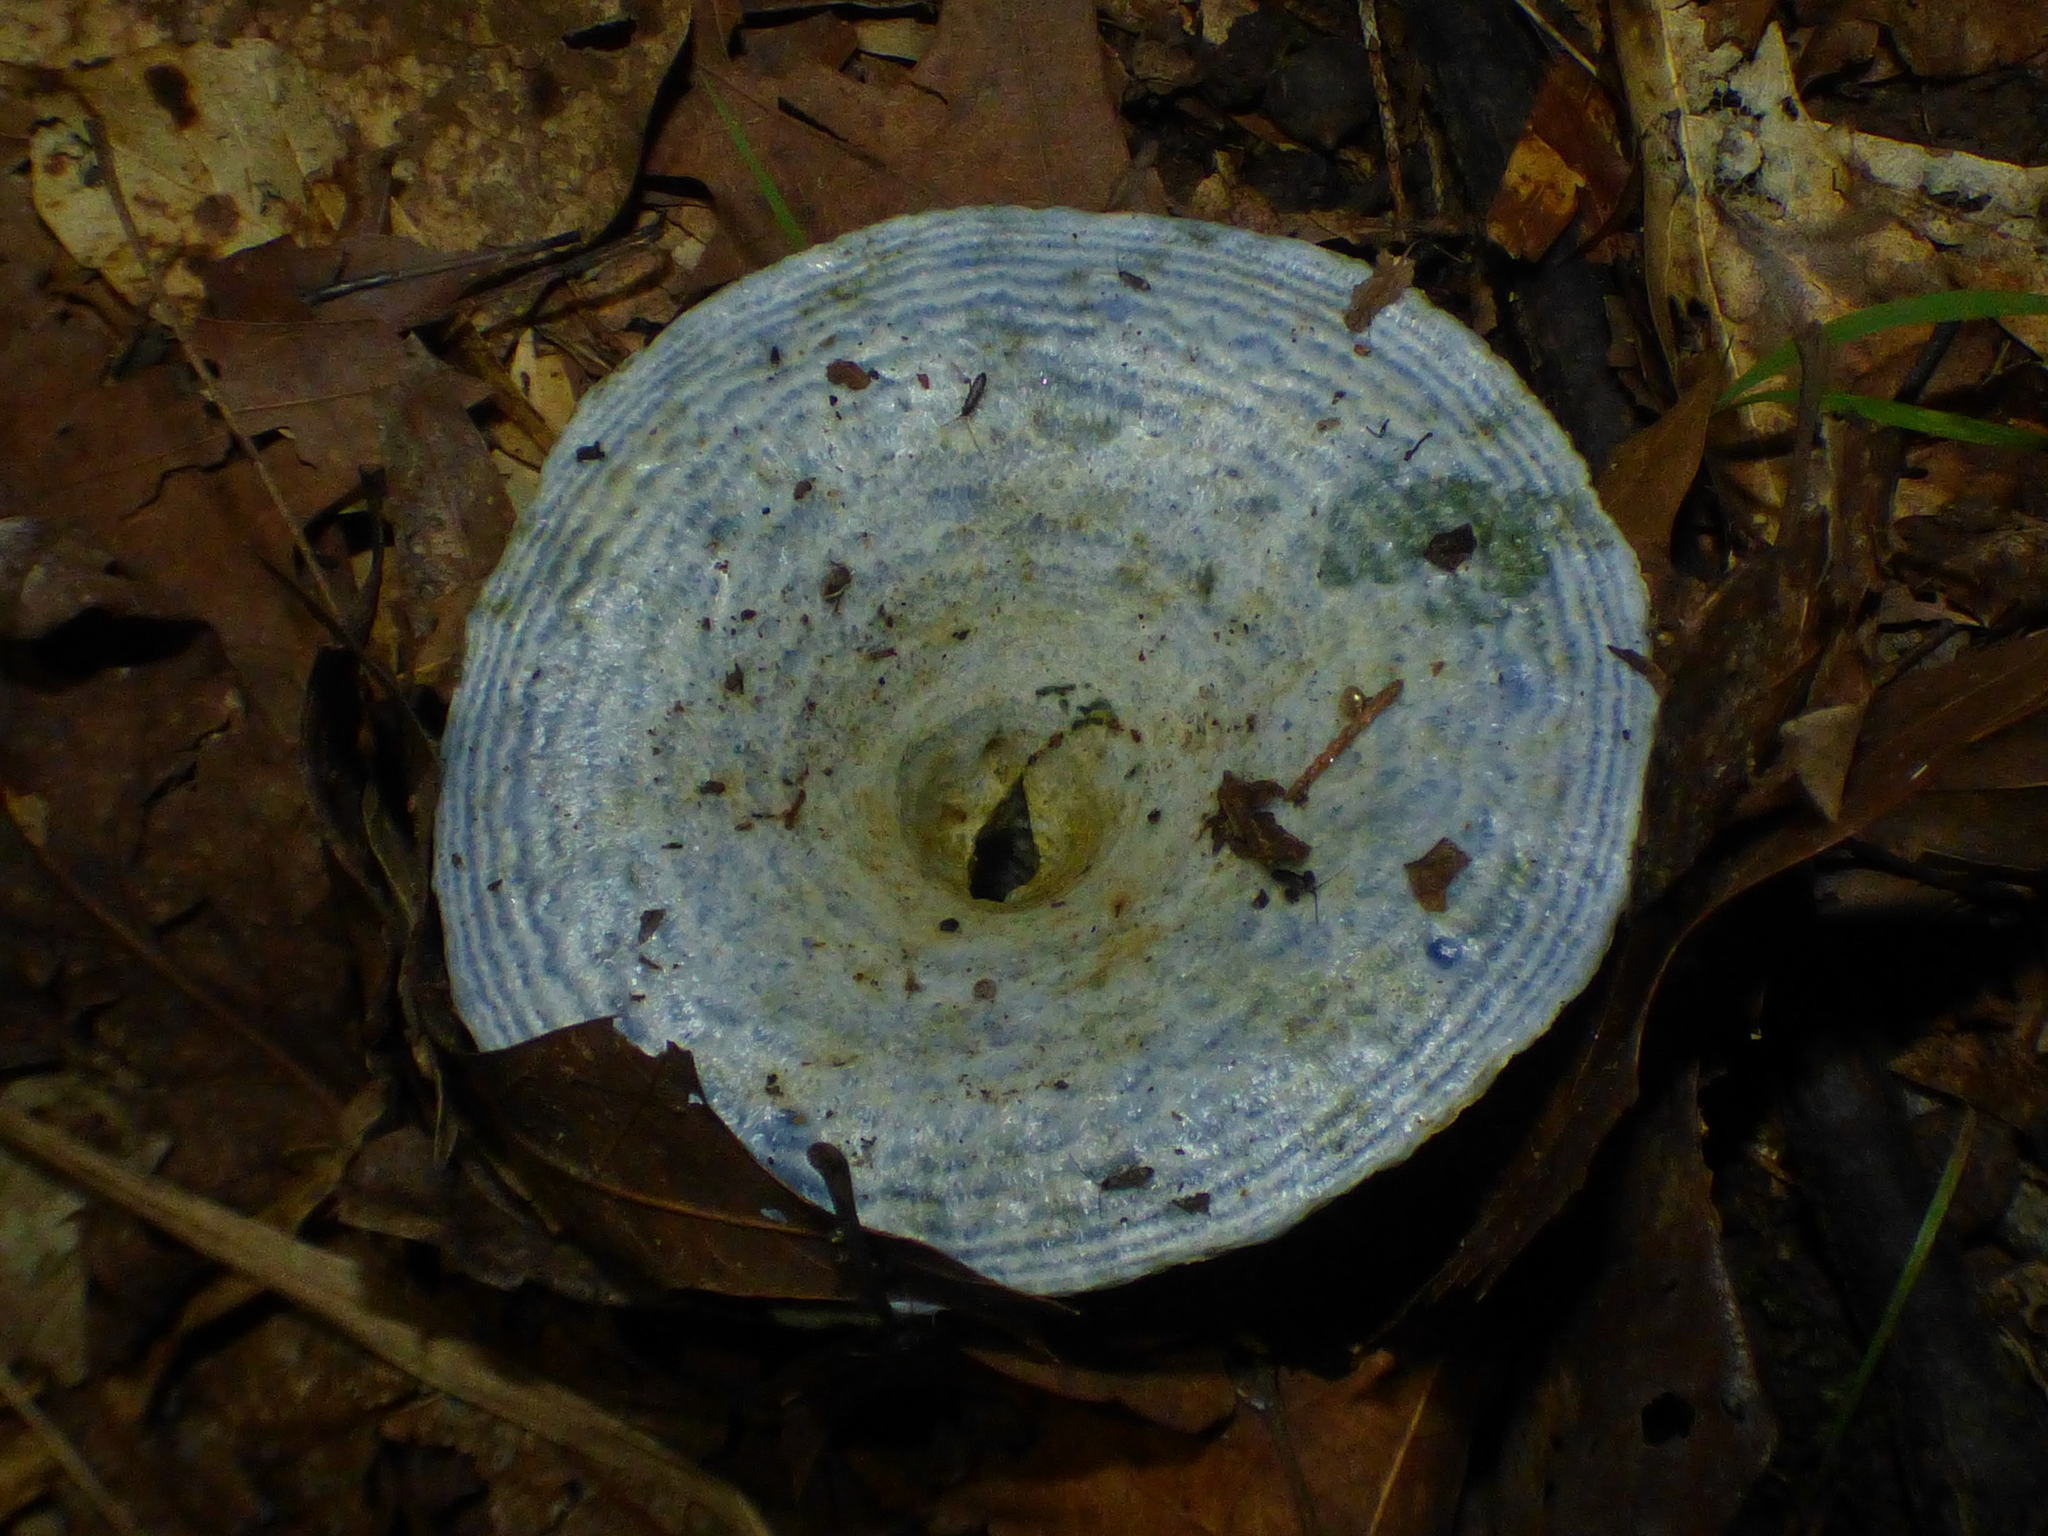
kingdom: Fungi
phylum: Basidiomycota
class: Agaricomycetes
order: Russulales
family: Russulaceae
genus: Lactarius
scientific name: Lactarius indigo
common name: Indigo milk cap
